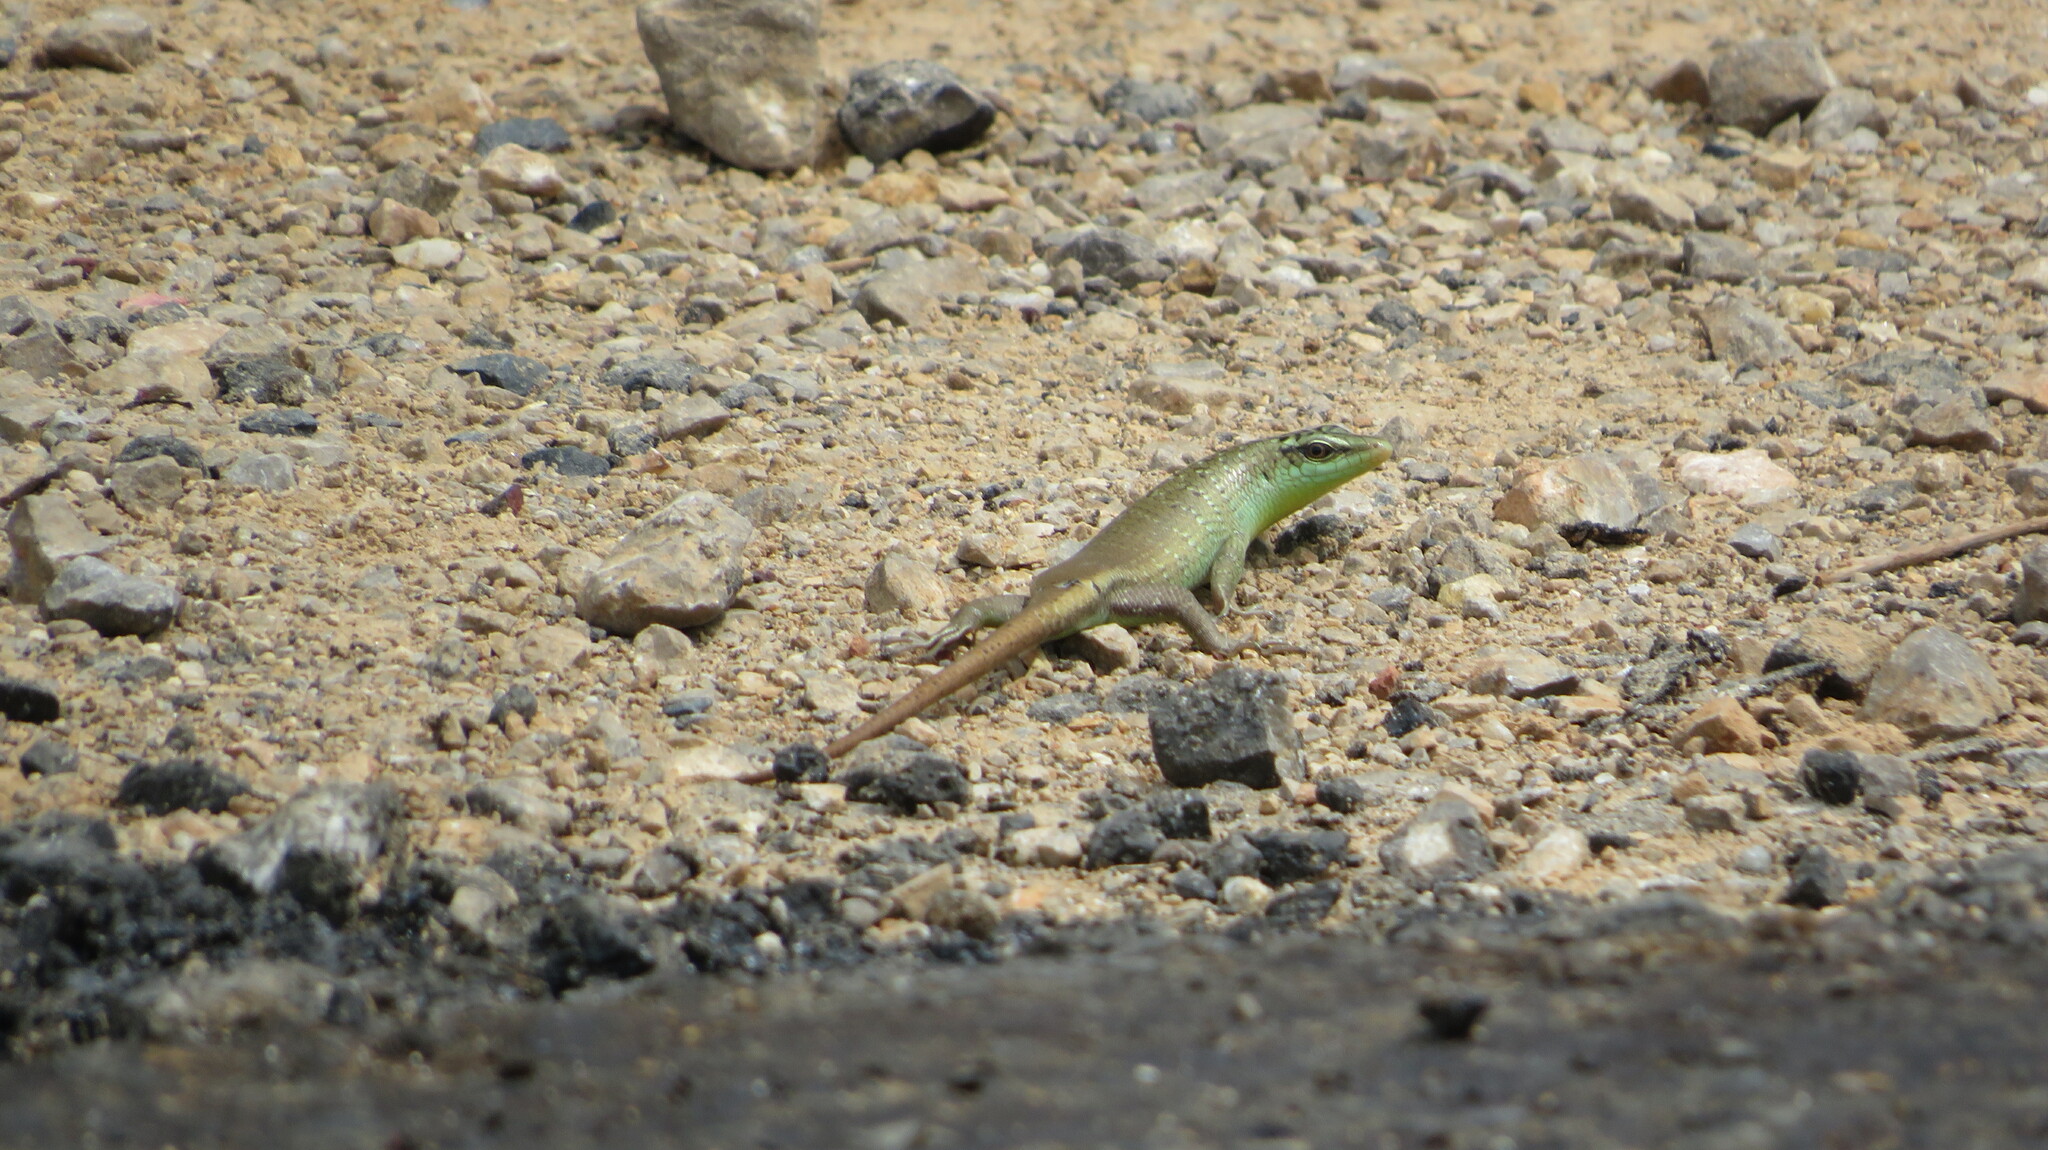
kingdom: Animalia
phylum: Chordata
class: Squamata
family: Scincidae
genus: Dasia
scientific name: Dasia olivacea
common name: Olive dasia
